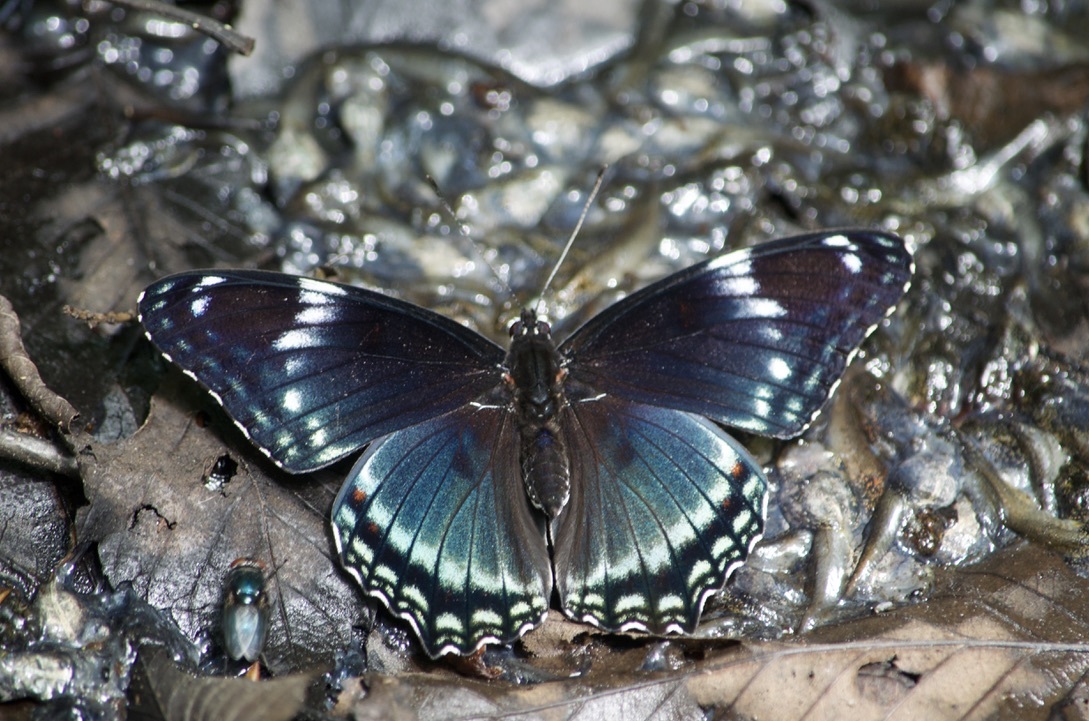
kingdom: Animalia
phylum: Arthropoda
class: Insecta
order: Lepidoptera
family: Nymphalidae
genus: Limenitis
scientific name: Limenitis
